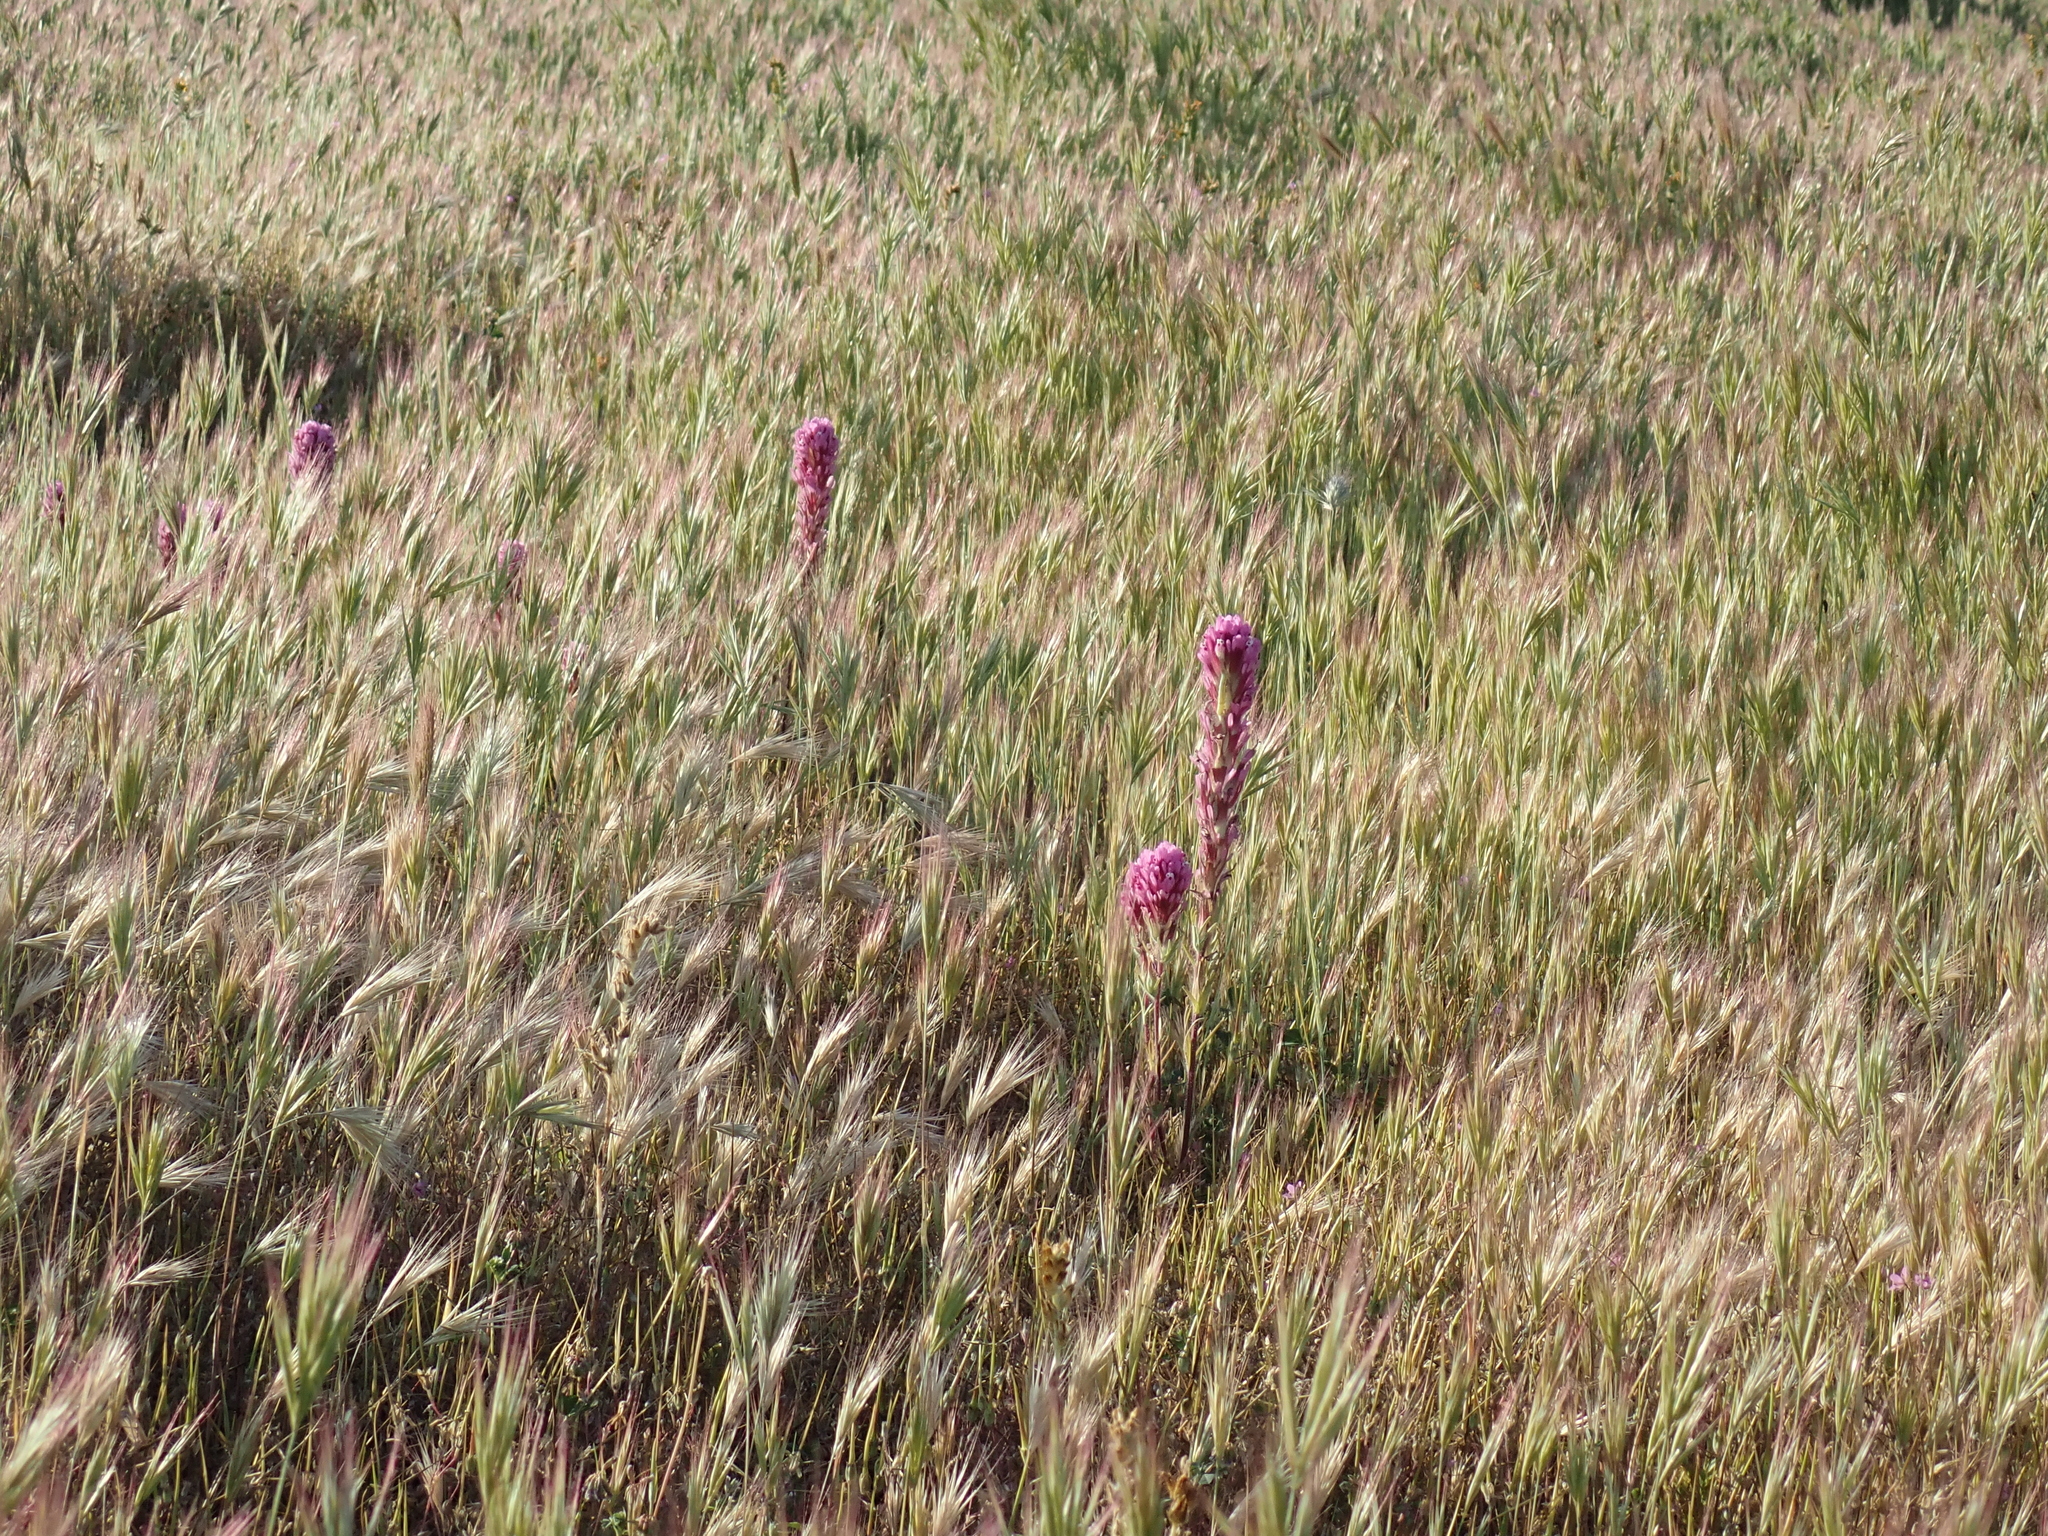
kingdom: Plantae
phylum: Tracheophyta
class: Magnoliopsida
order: Lamiales
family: Orobanchaceae
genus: Castilleja
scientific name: Castilleja exserta
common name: Purple owl-clover
